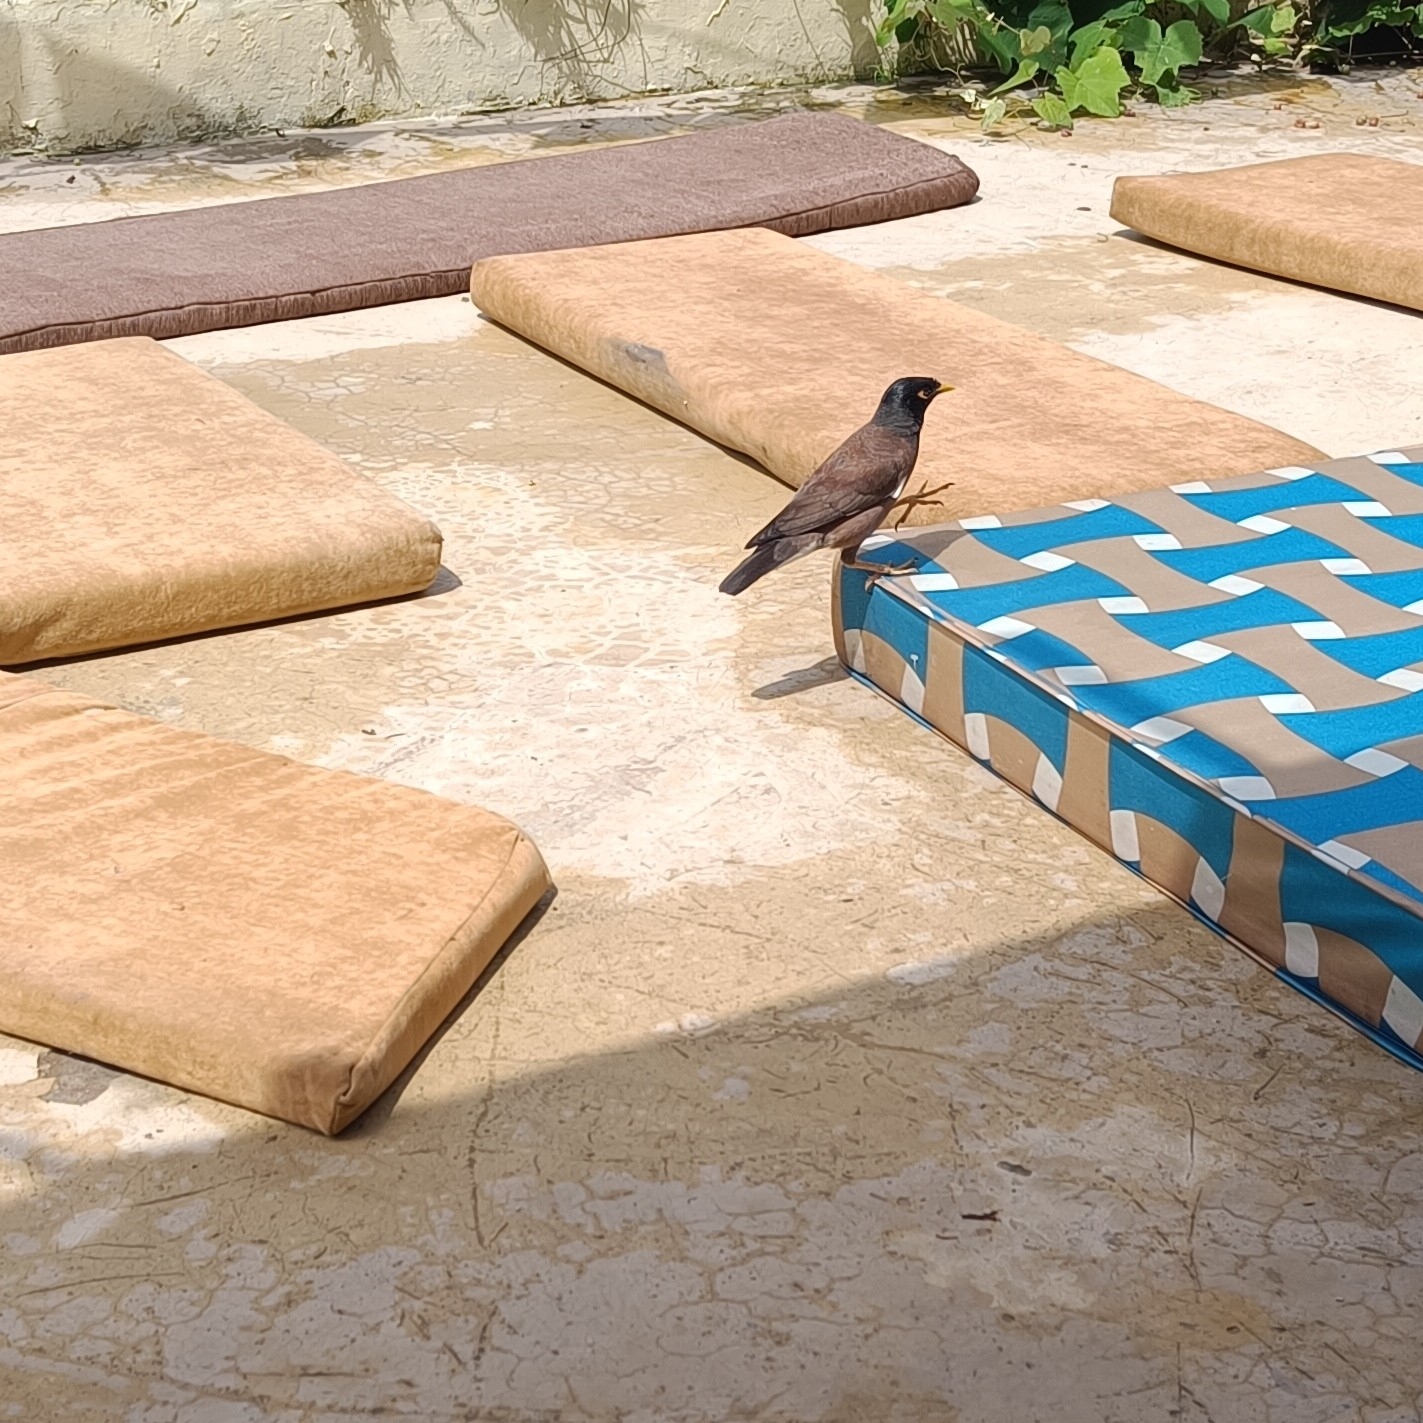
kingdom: Animalia
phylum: Chordata
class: Aves
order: Passeriformes
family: Sturnidae
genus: Acridotheres
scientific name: Acridotheres tristis
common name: Common myna
